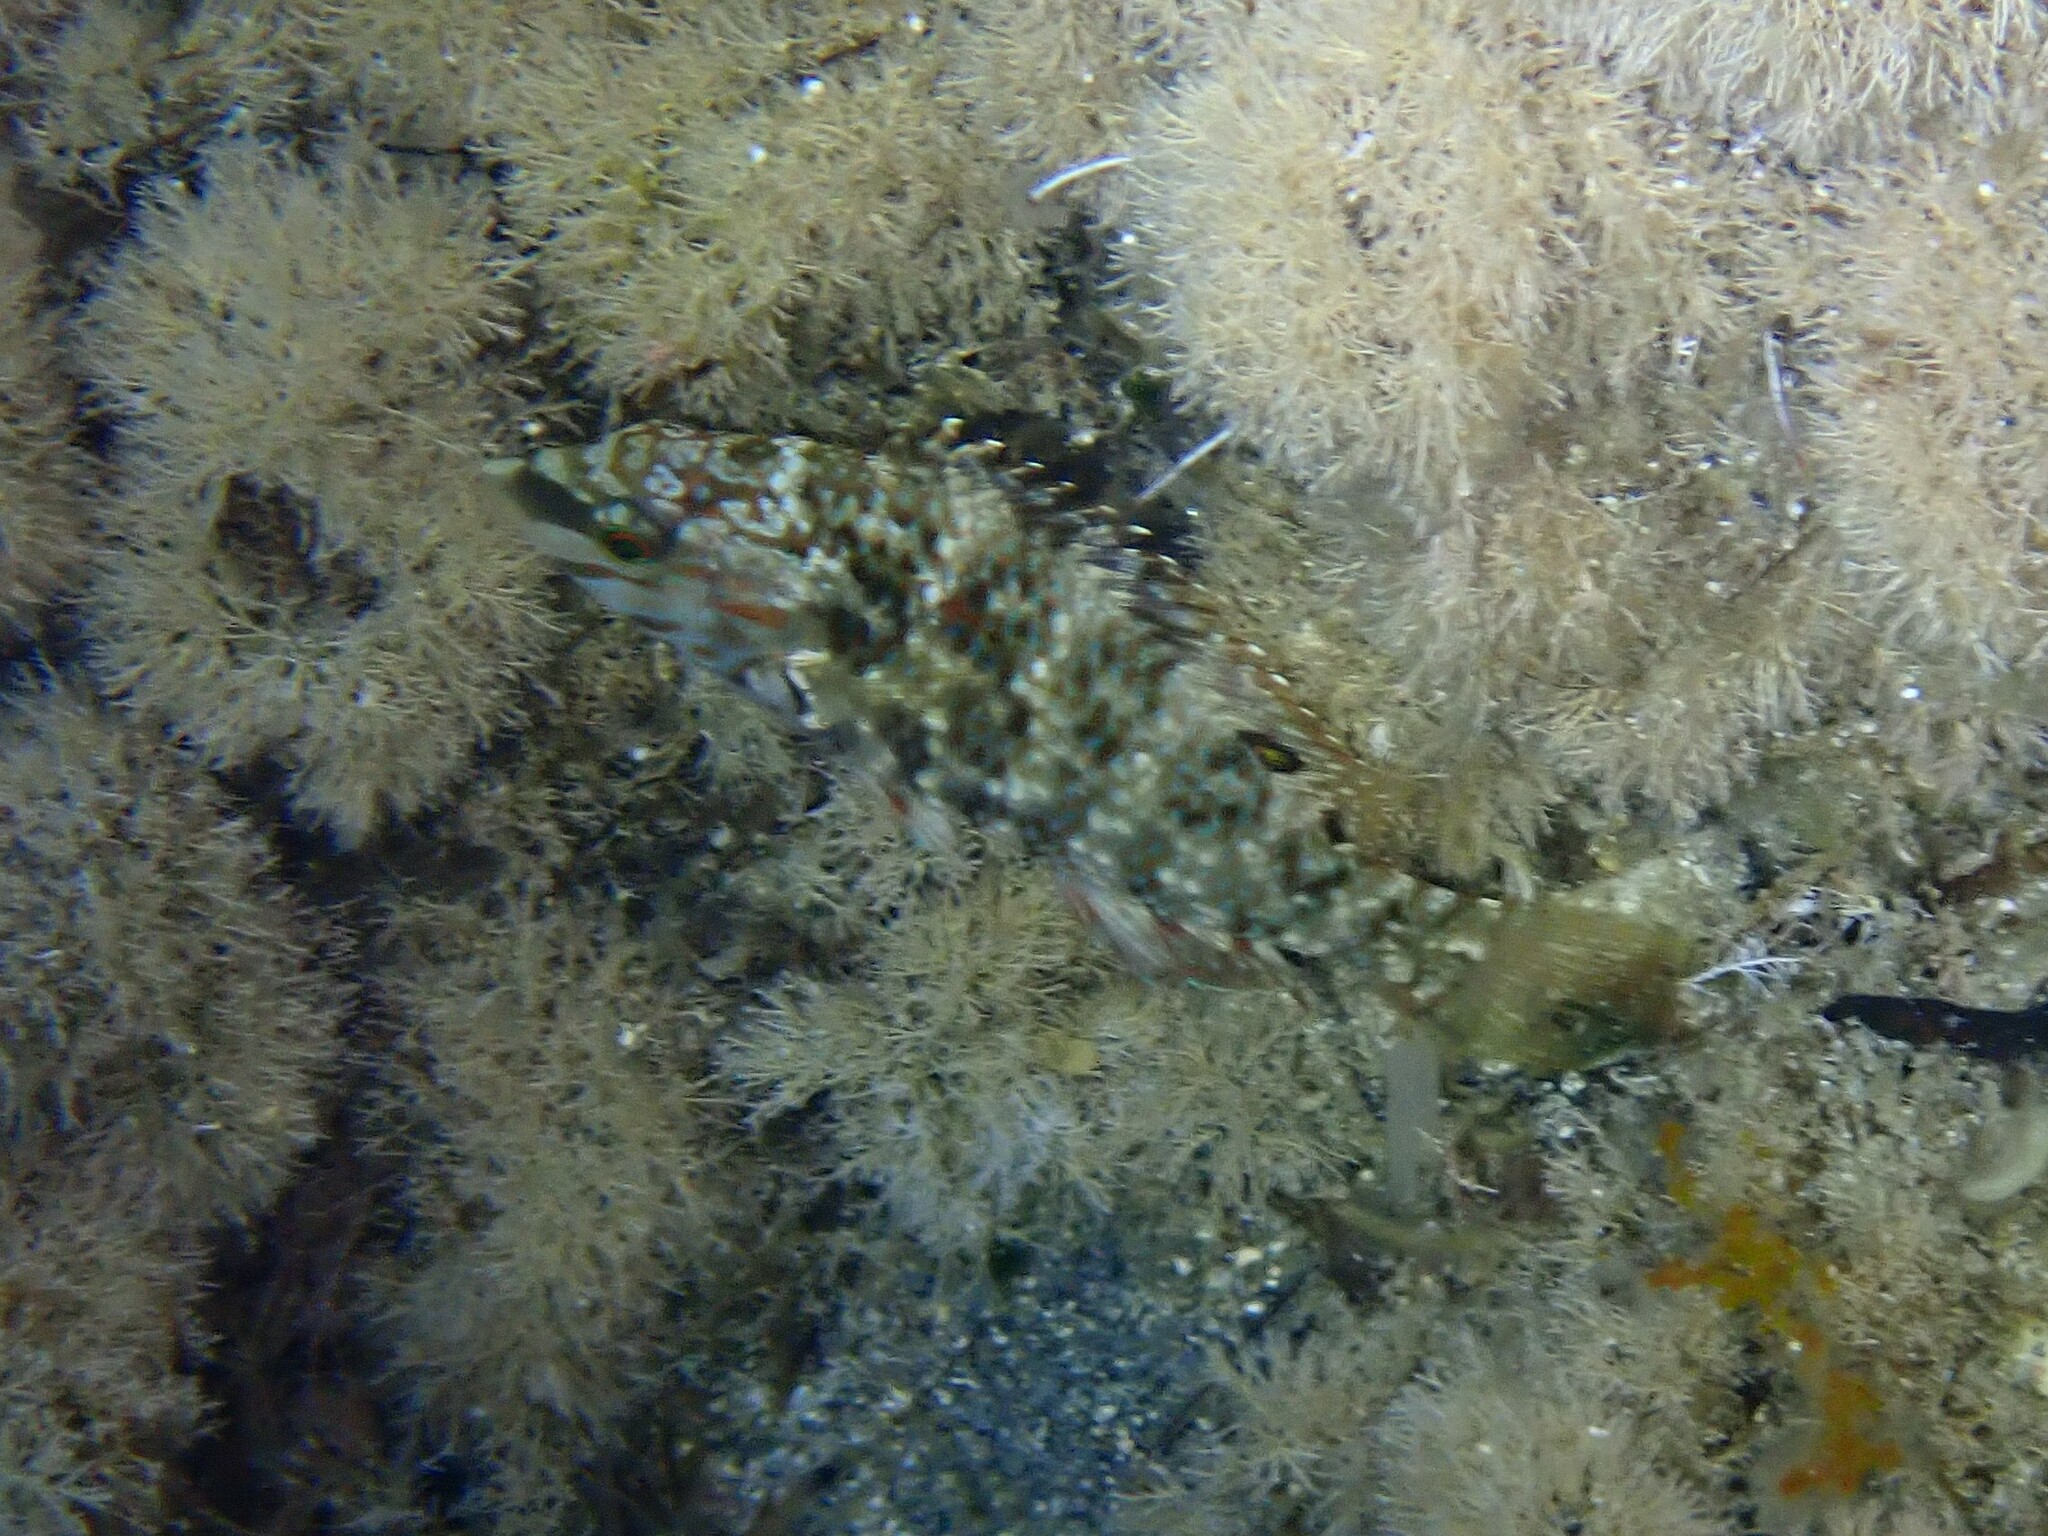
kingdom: Animalia
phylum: Chordata
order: Perciformes
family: Labridae
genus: Symphodus
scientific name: Symphodus roissali
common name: Five-spotted wrasse
